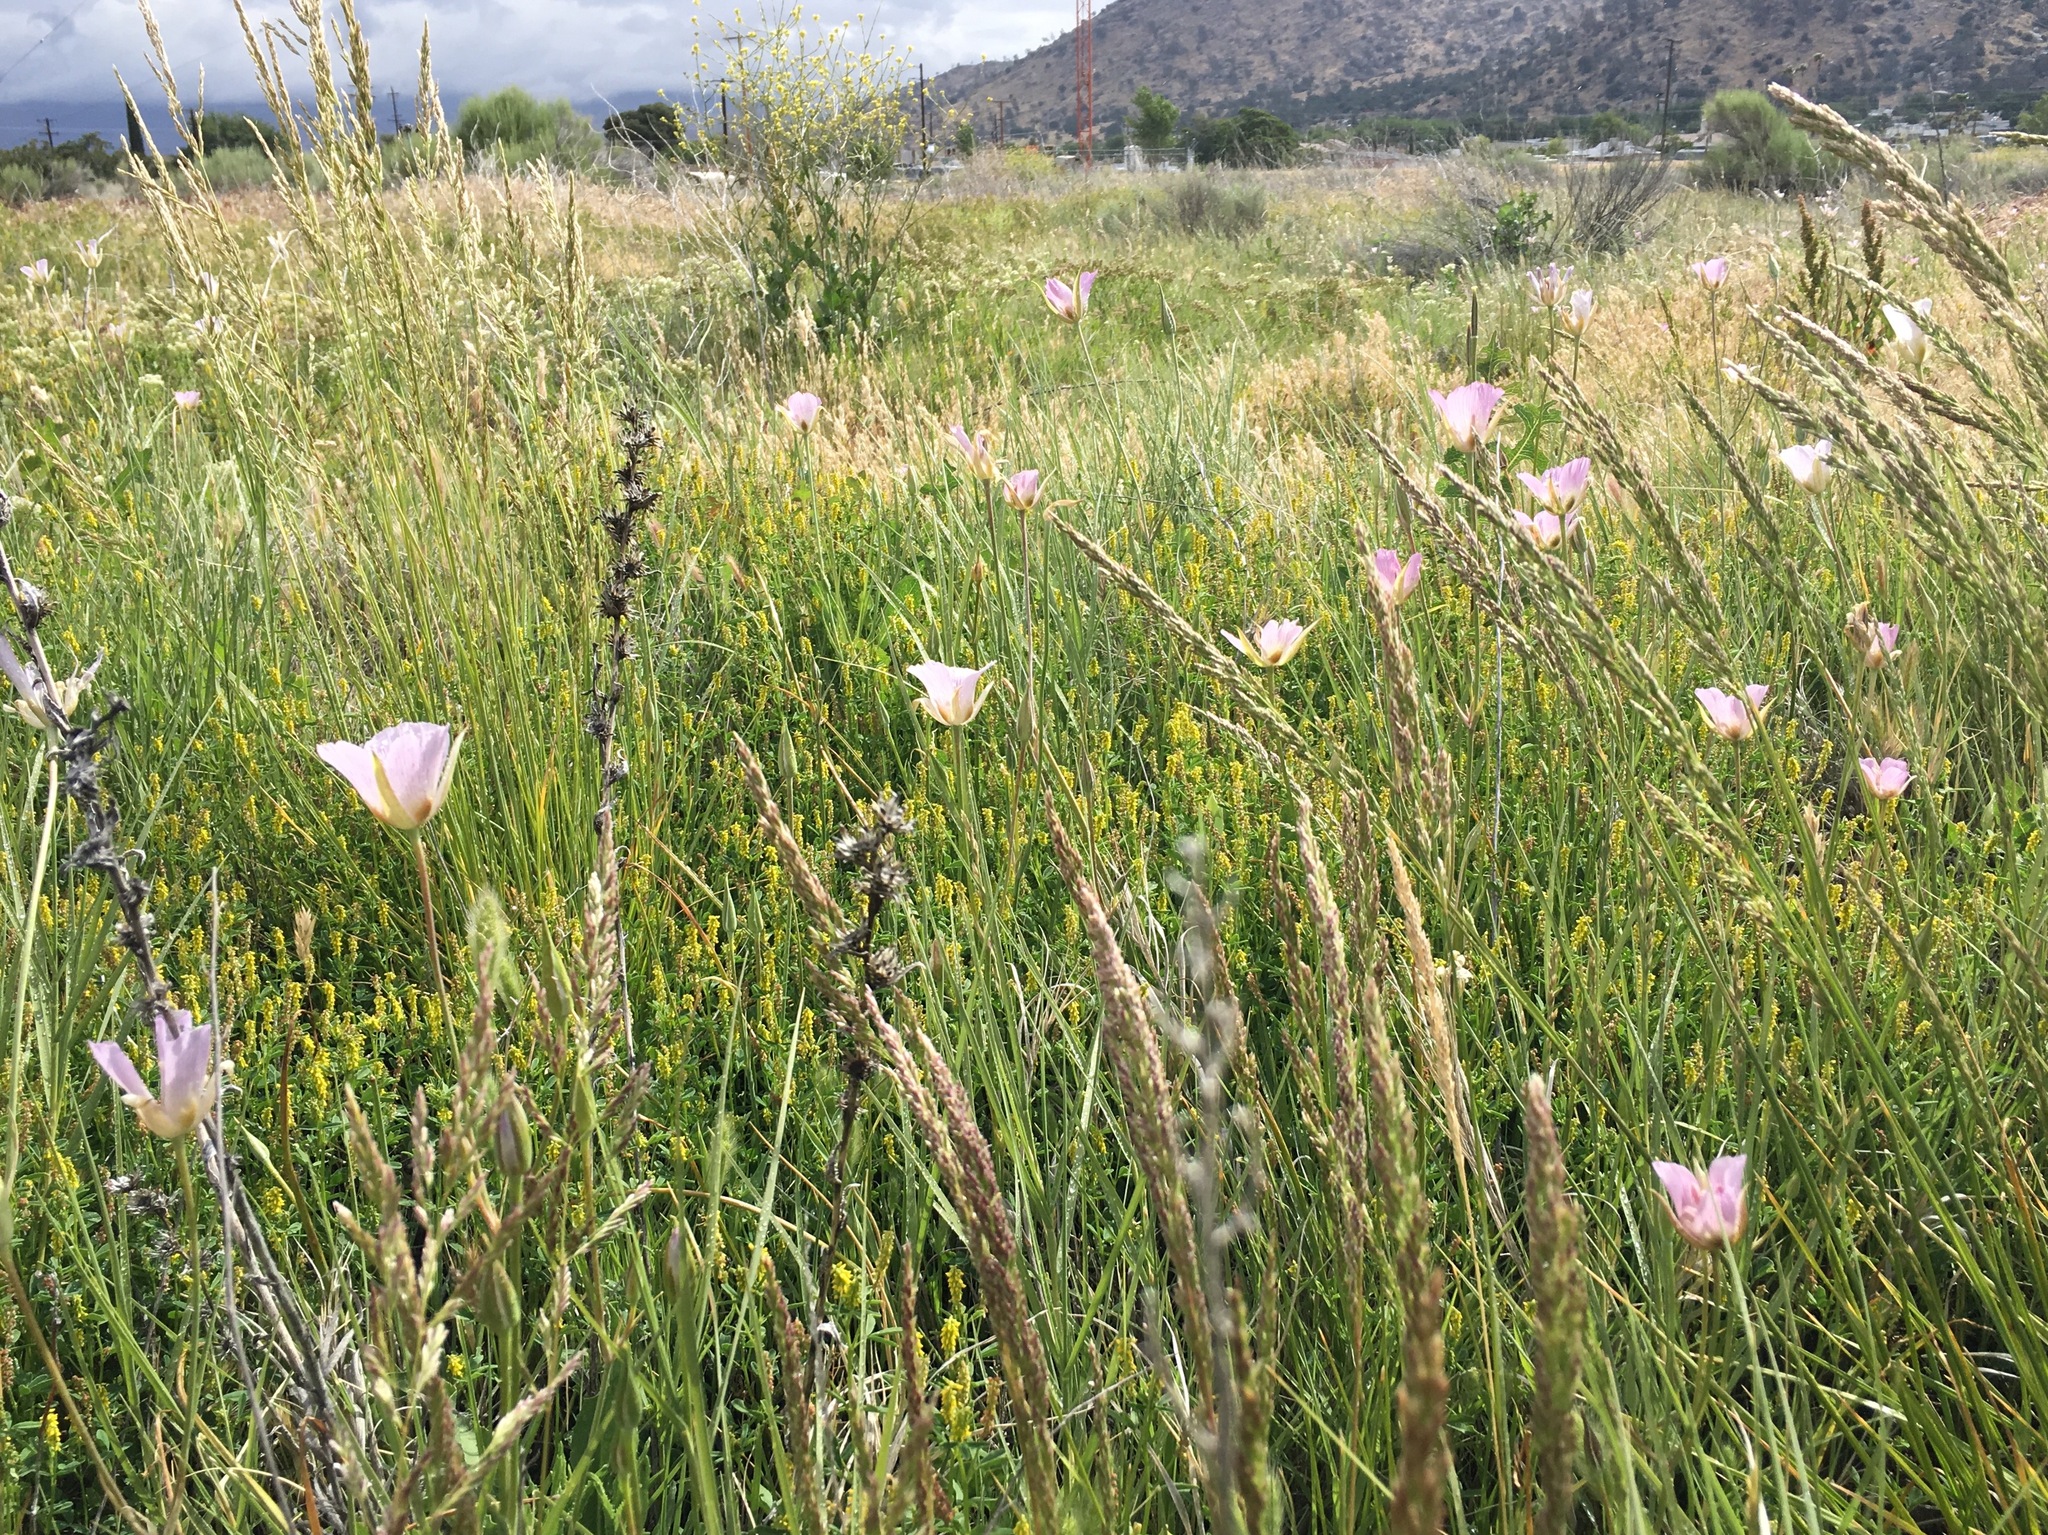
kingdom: Plantae
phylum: Tracheophyta
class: Liliopsida
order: Liliales
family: Liliaceae
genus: Calochortus
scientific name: Calochortus striatus
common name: Alkali mariposa-lily
